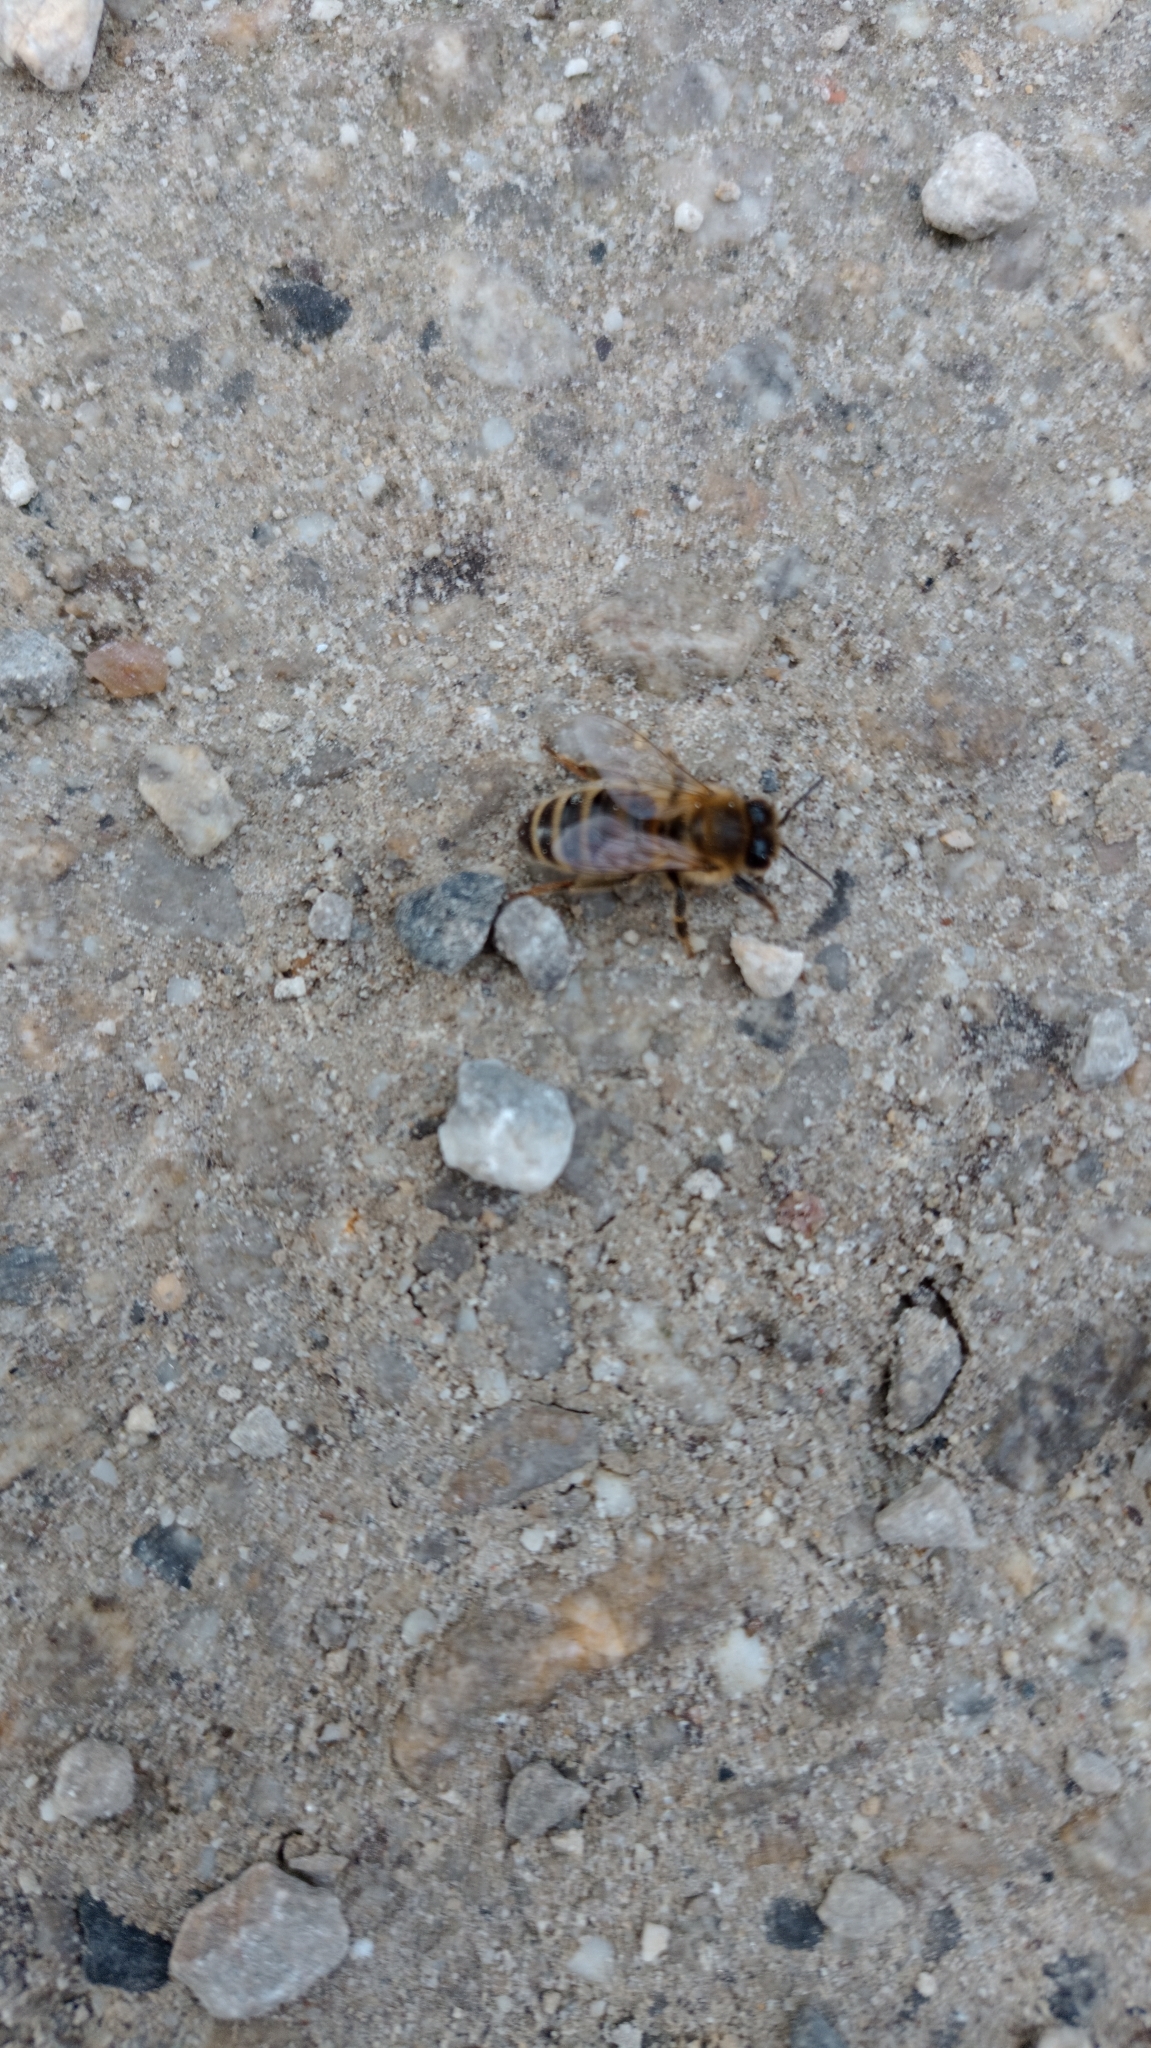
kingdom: Animalia
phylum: Arthropoda
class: Insecta
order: Hymenoptera
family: Apidae
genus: Apis
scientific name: Apis mellifera
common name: Honey bee
